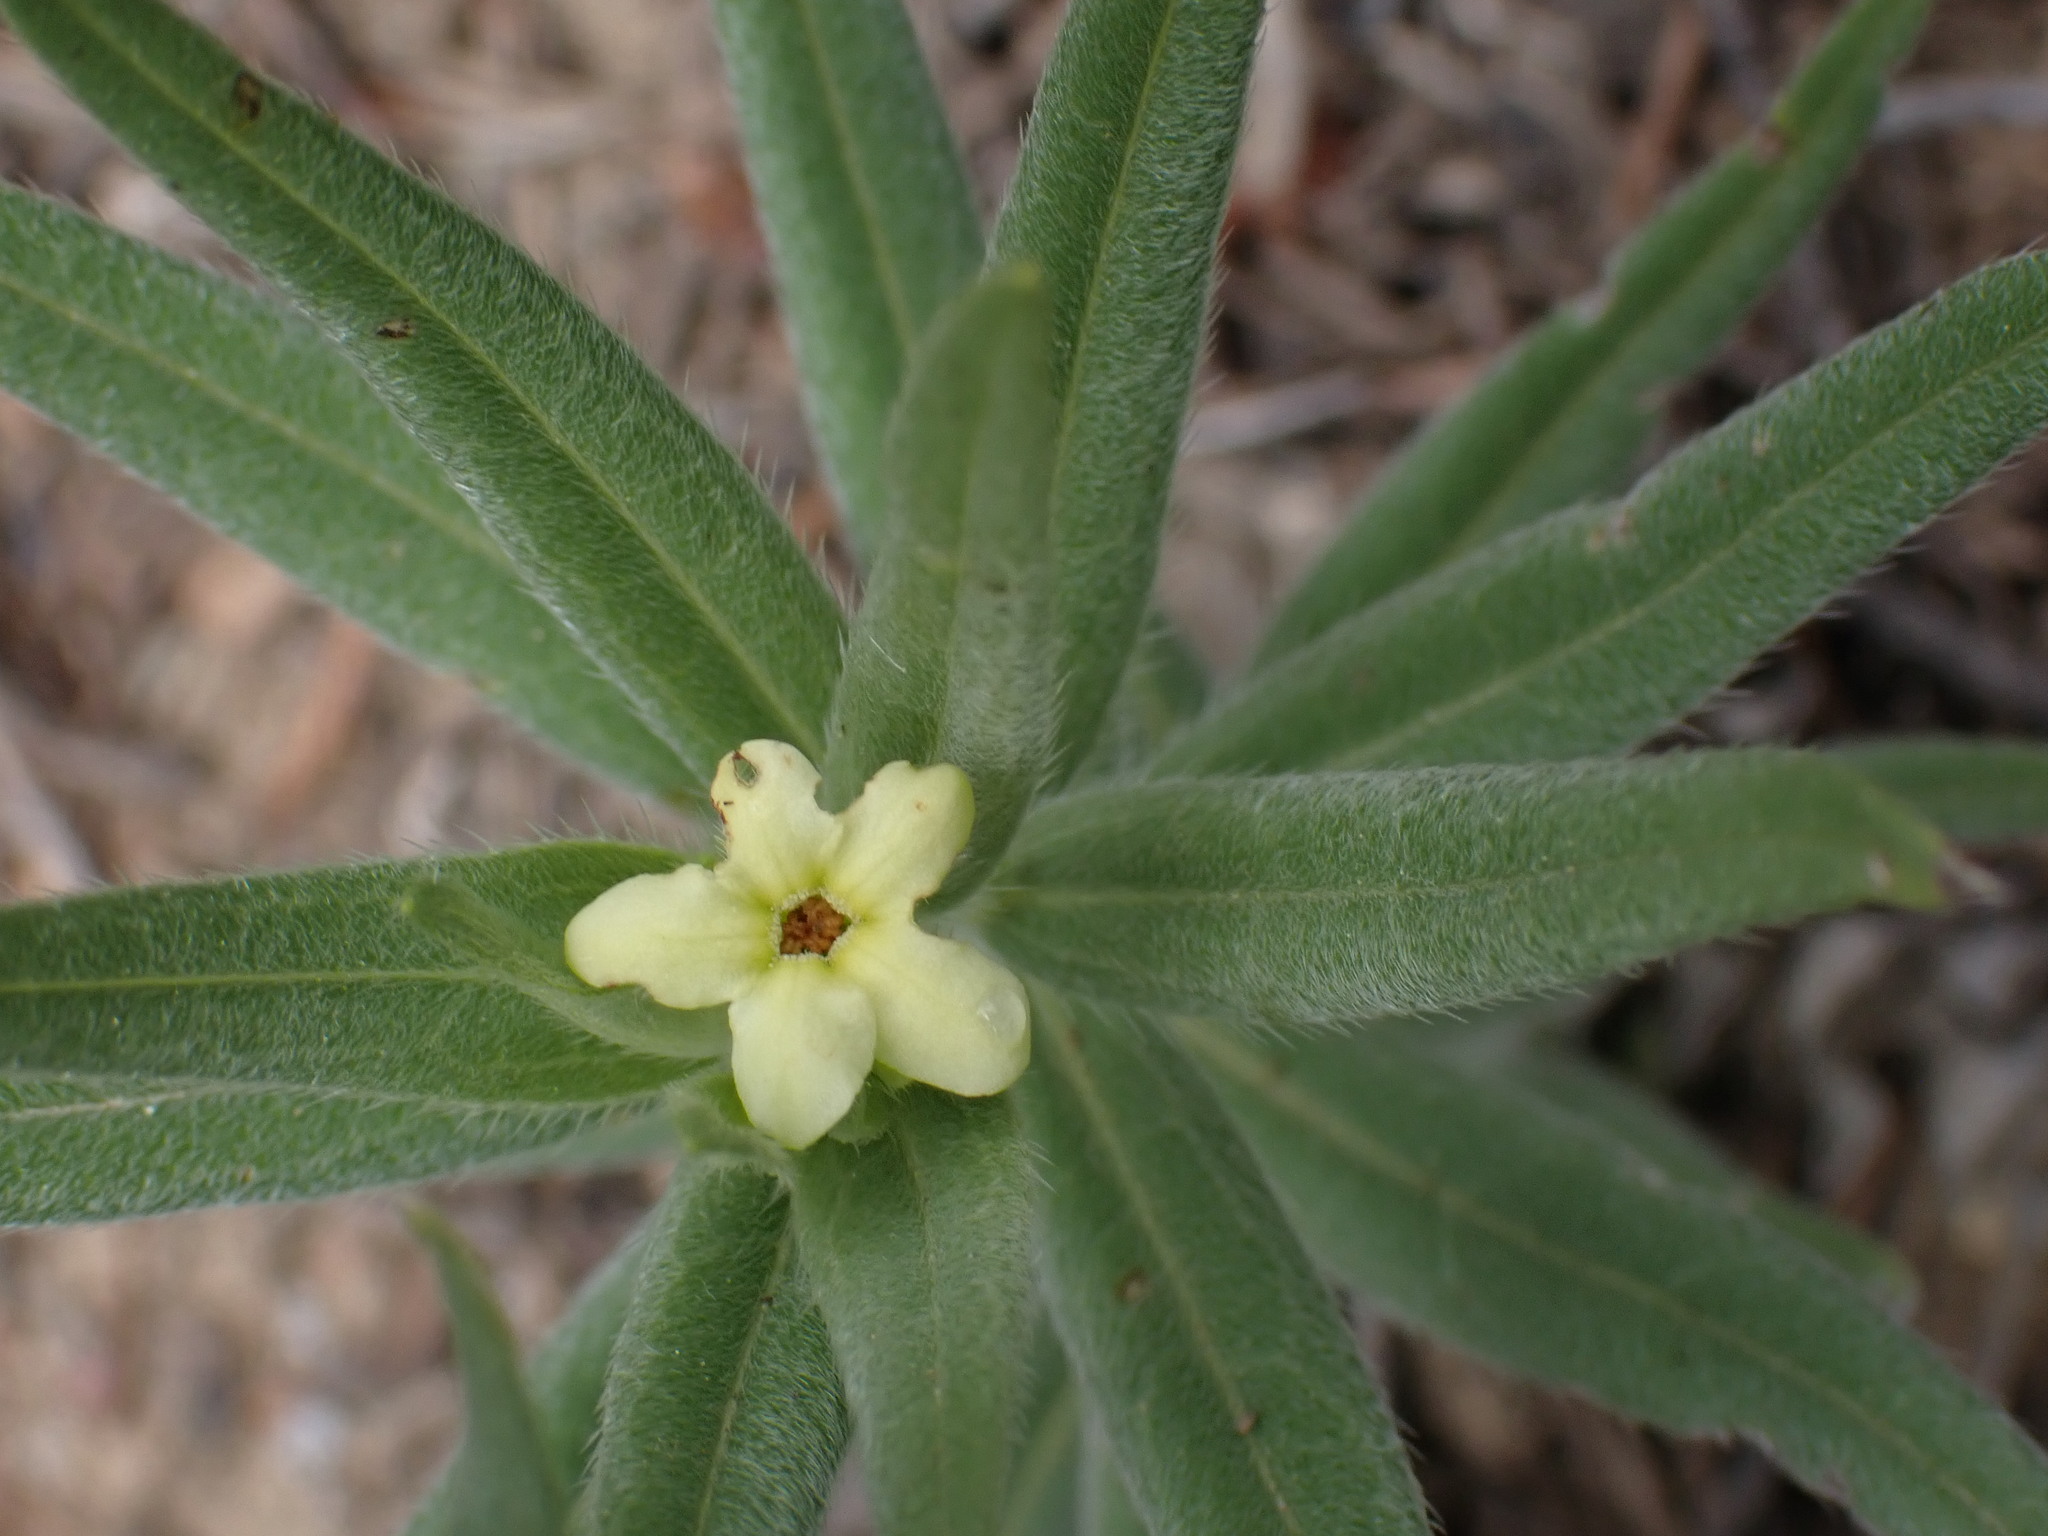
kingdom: Plantae
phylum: Tracheophyta
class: Magnoliopsida
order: Boraginales
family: Boraginaceae
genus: Lithospermum
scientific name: Lithospermum ruderale
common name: Western gromwell
